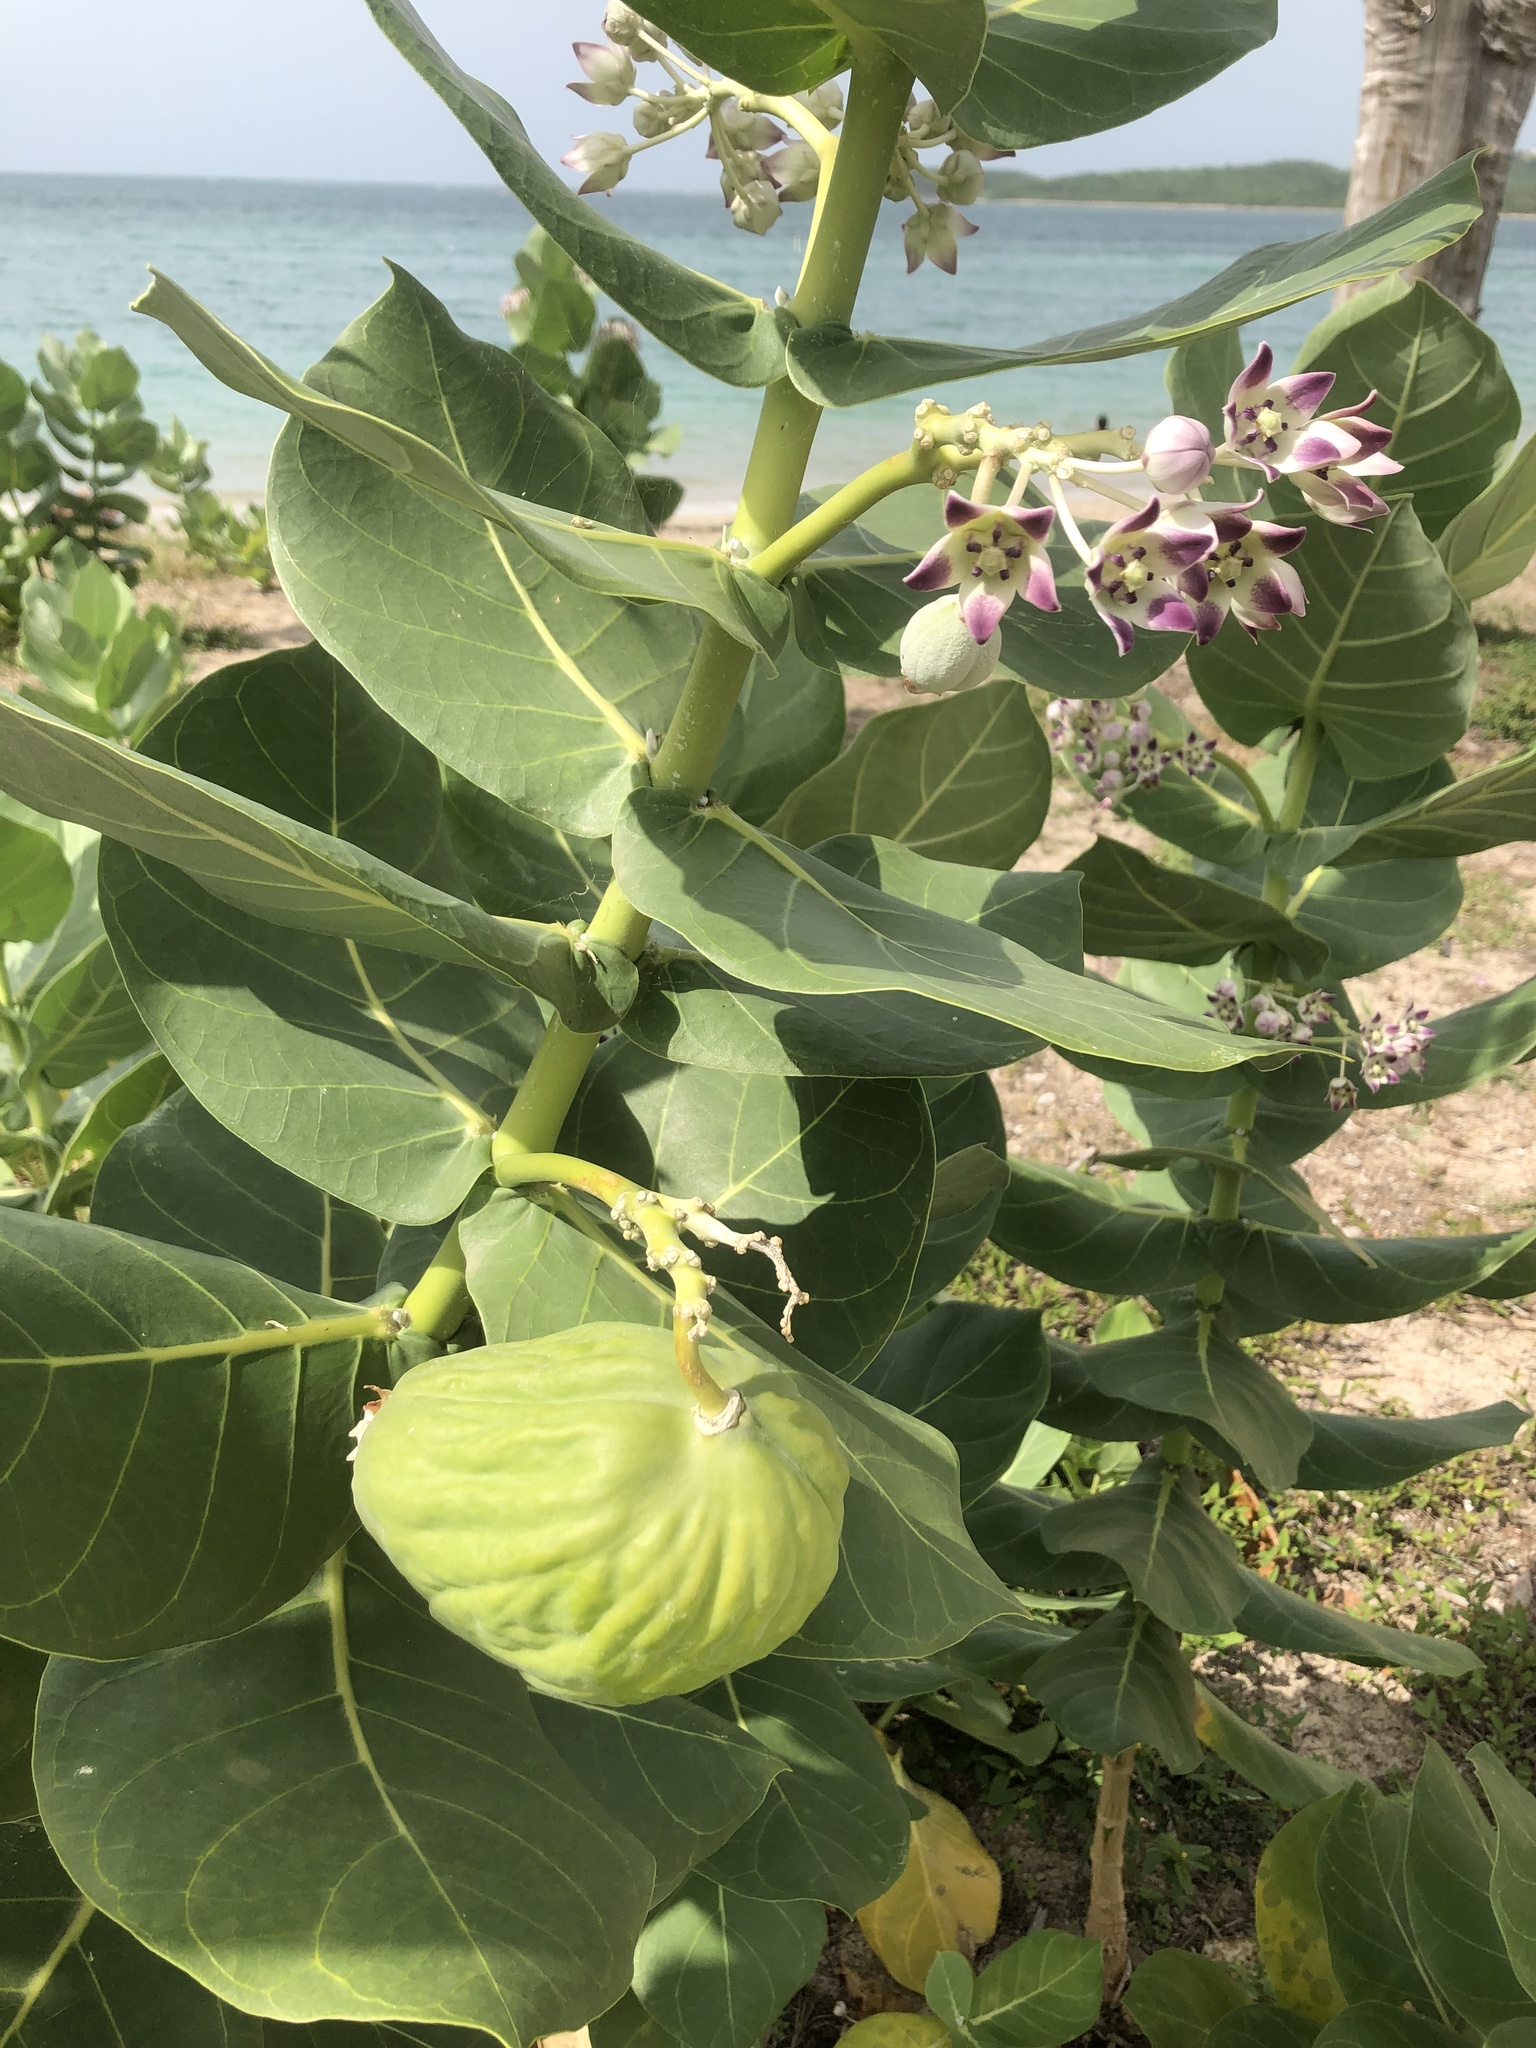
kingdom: Plantae
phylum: Tracheophyta
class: Magnoliopsida
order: Gentianales
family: Apocynaceae
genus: Calotropis
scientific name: Calotropis procera
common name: Roostertree
